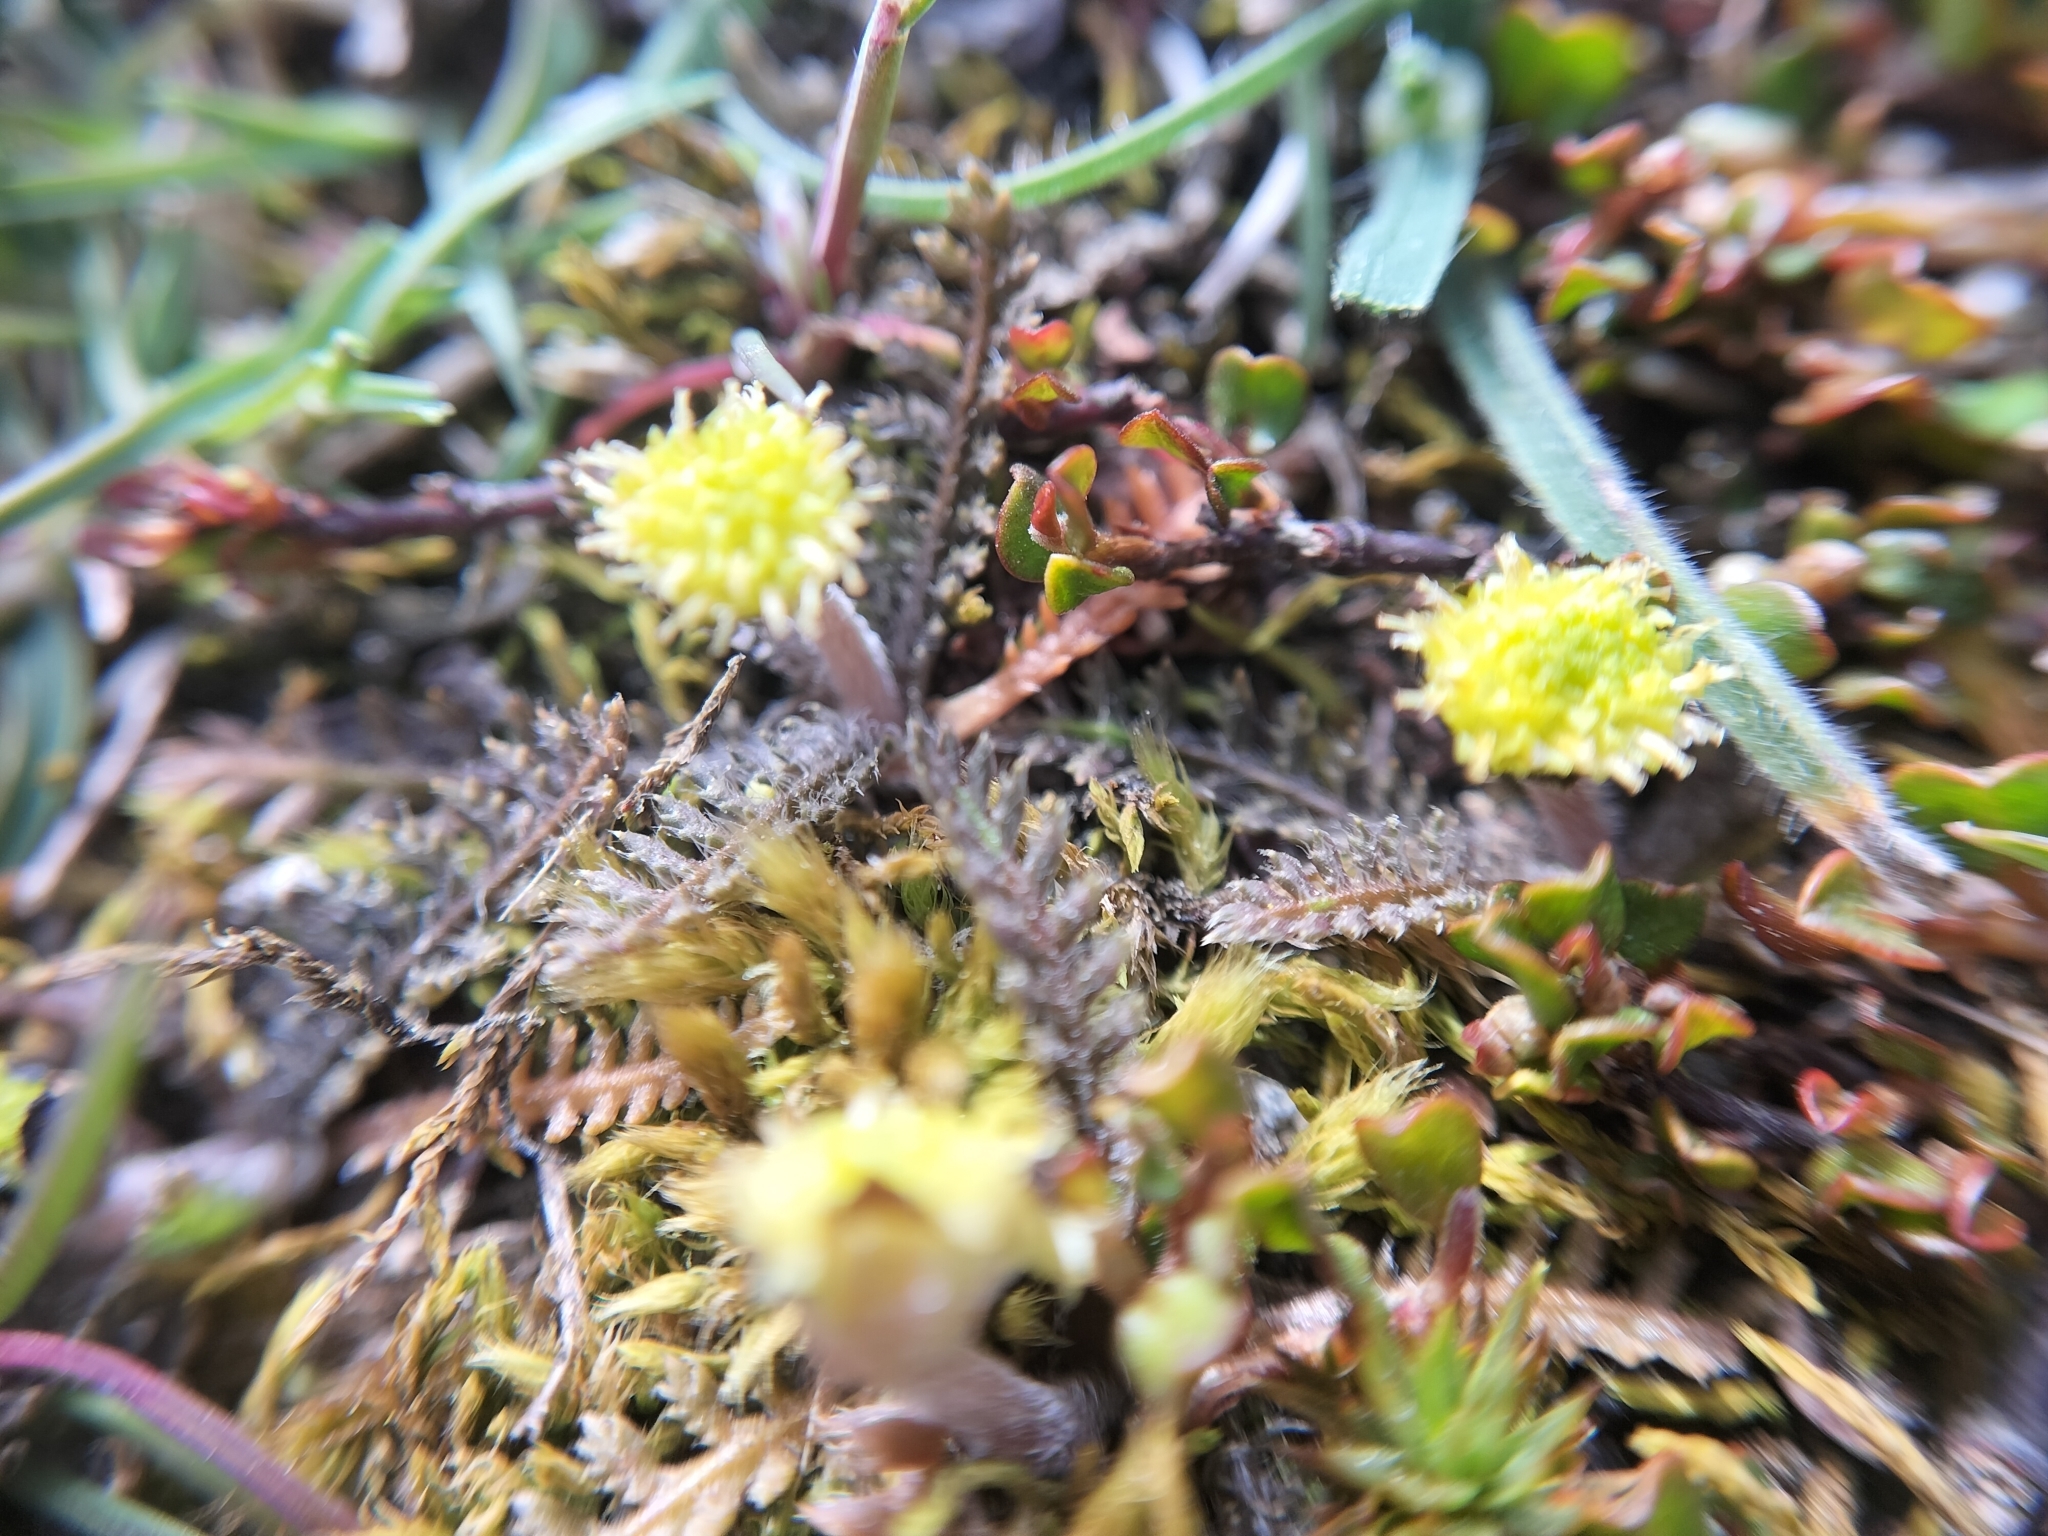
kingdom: Plantae
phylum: Tracheophyta
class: Magnoliopsida
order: Asterales
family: Asteraceae
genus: Leptinella
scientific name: Leptinella serrulata
